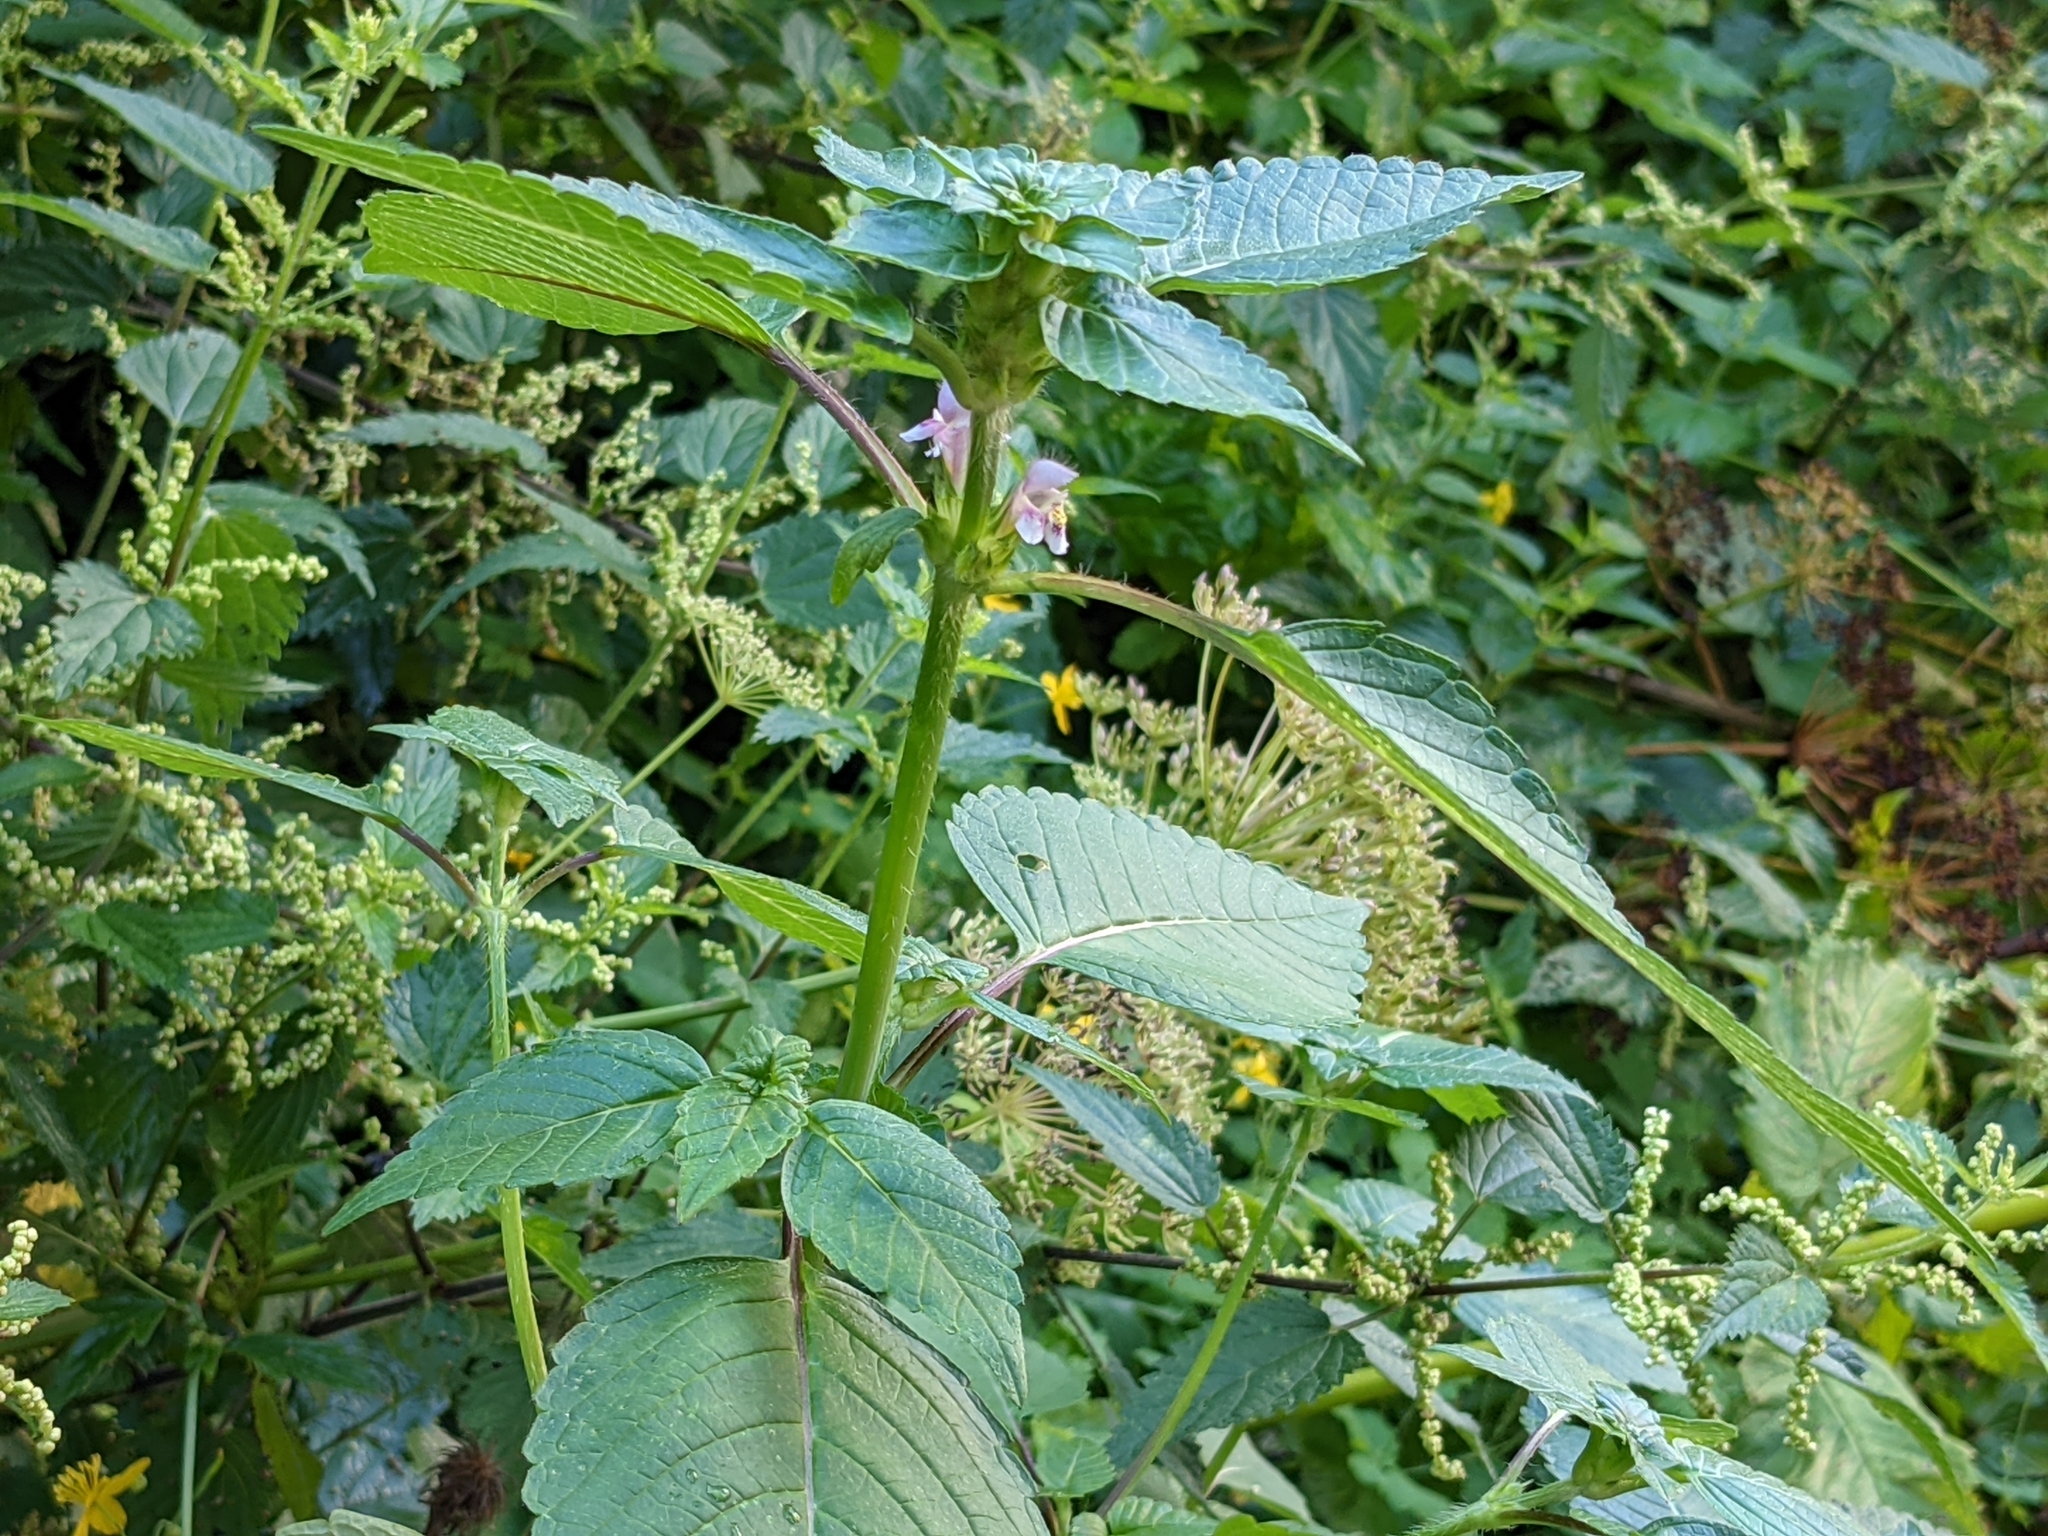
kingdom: Plantae
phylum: Tracheophyta
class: Magnoliopsida
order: Lamiales
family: Lamiaceae
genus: Galeopsis
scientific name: Galeopsis tetrahit
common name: Common hemp-nettle
